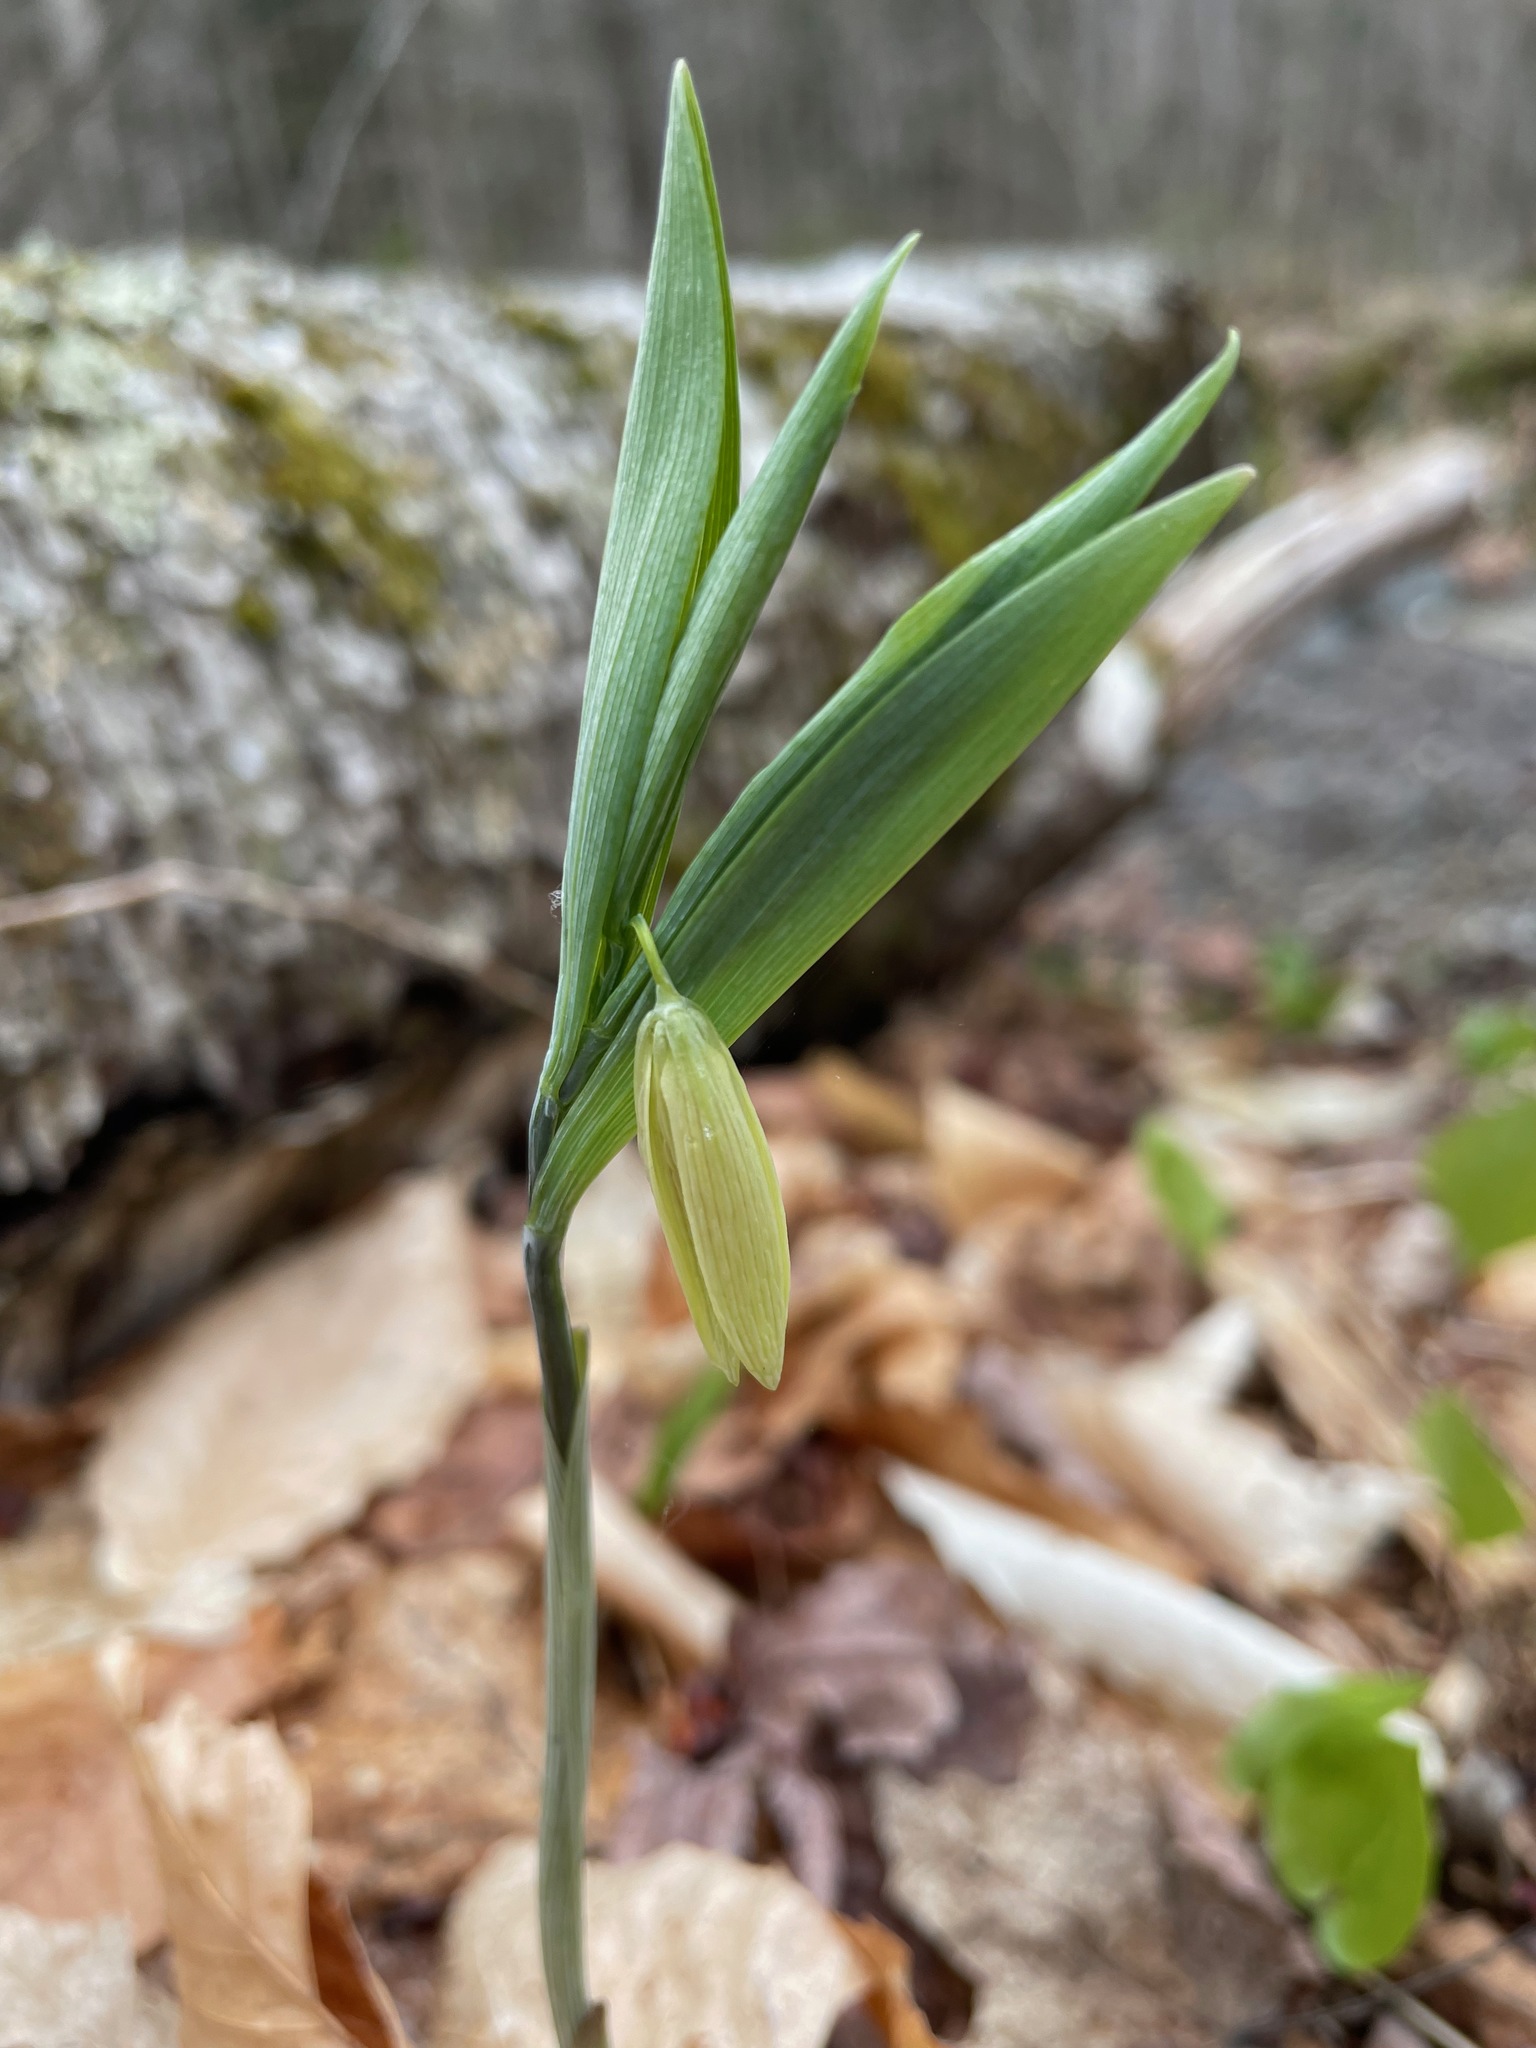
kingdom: Plantae
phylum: Tracheophyta
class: Liliopsida
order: Liliales
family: Colchicaceae
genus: Uvularia
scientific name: Uvularia sessilifolia
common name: Straw-lily
